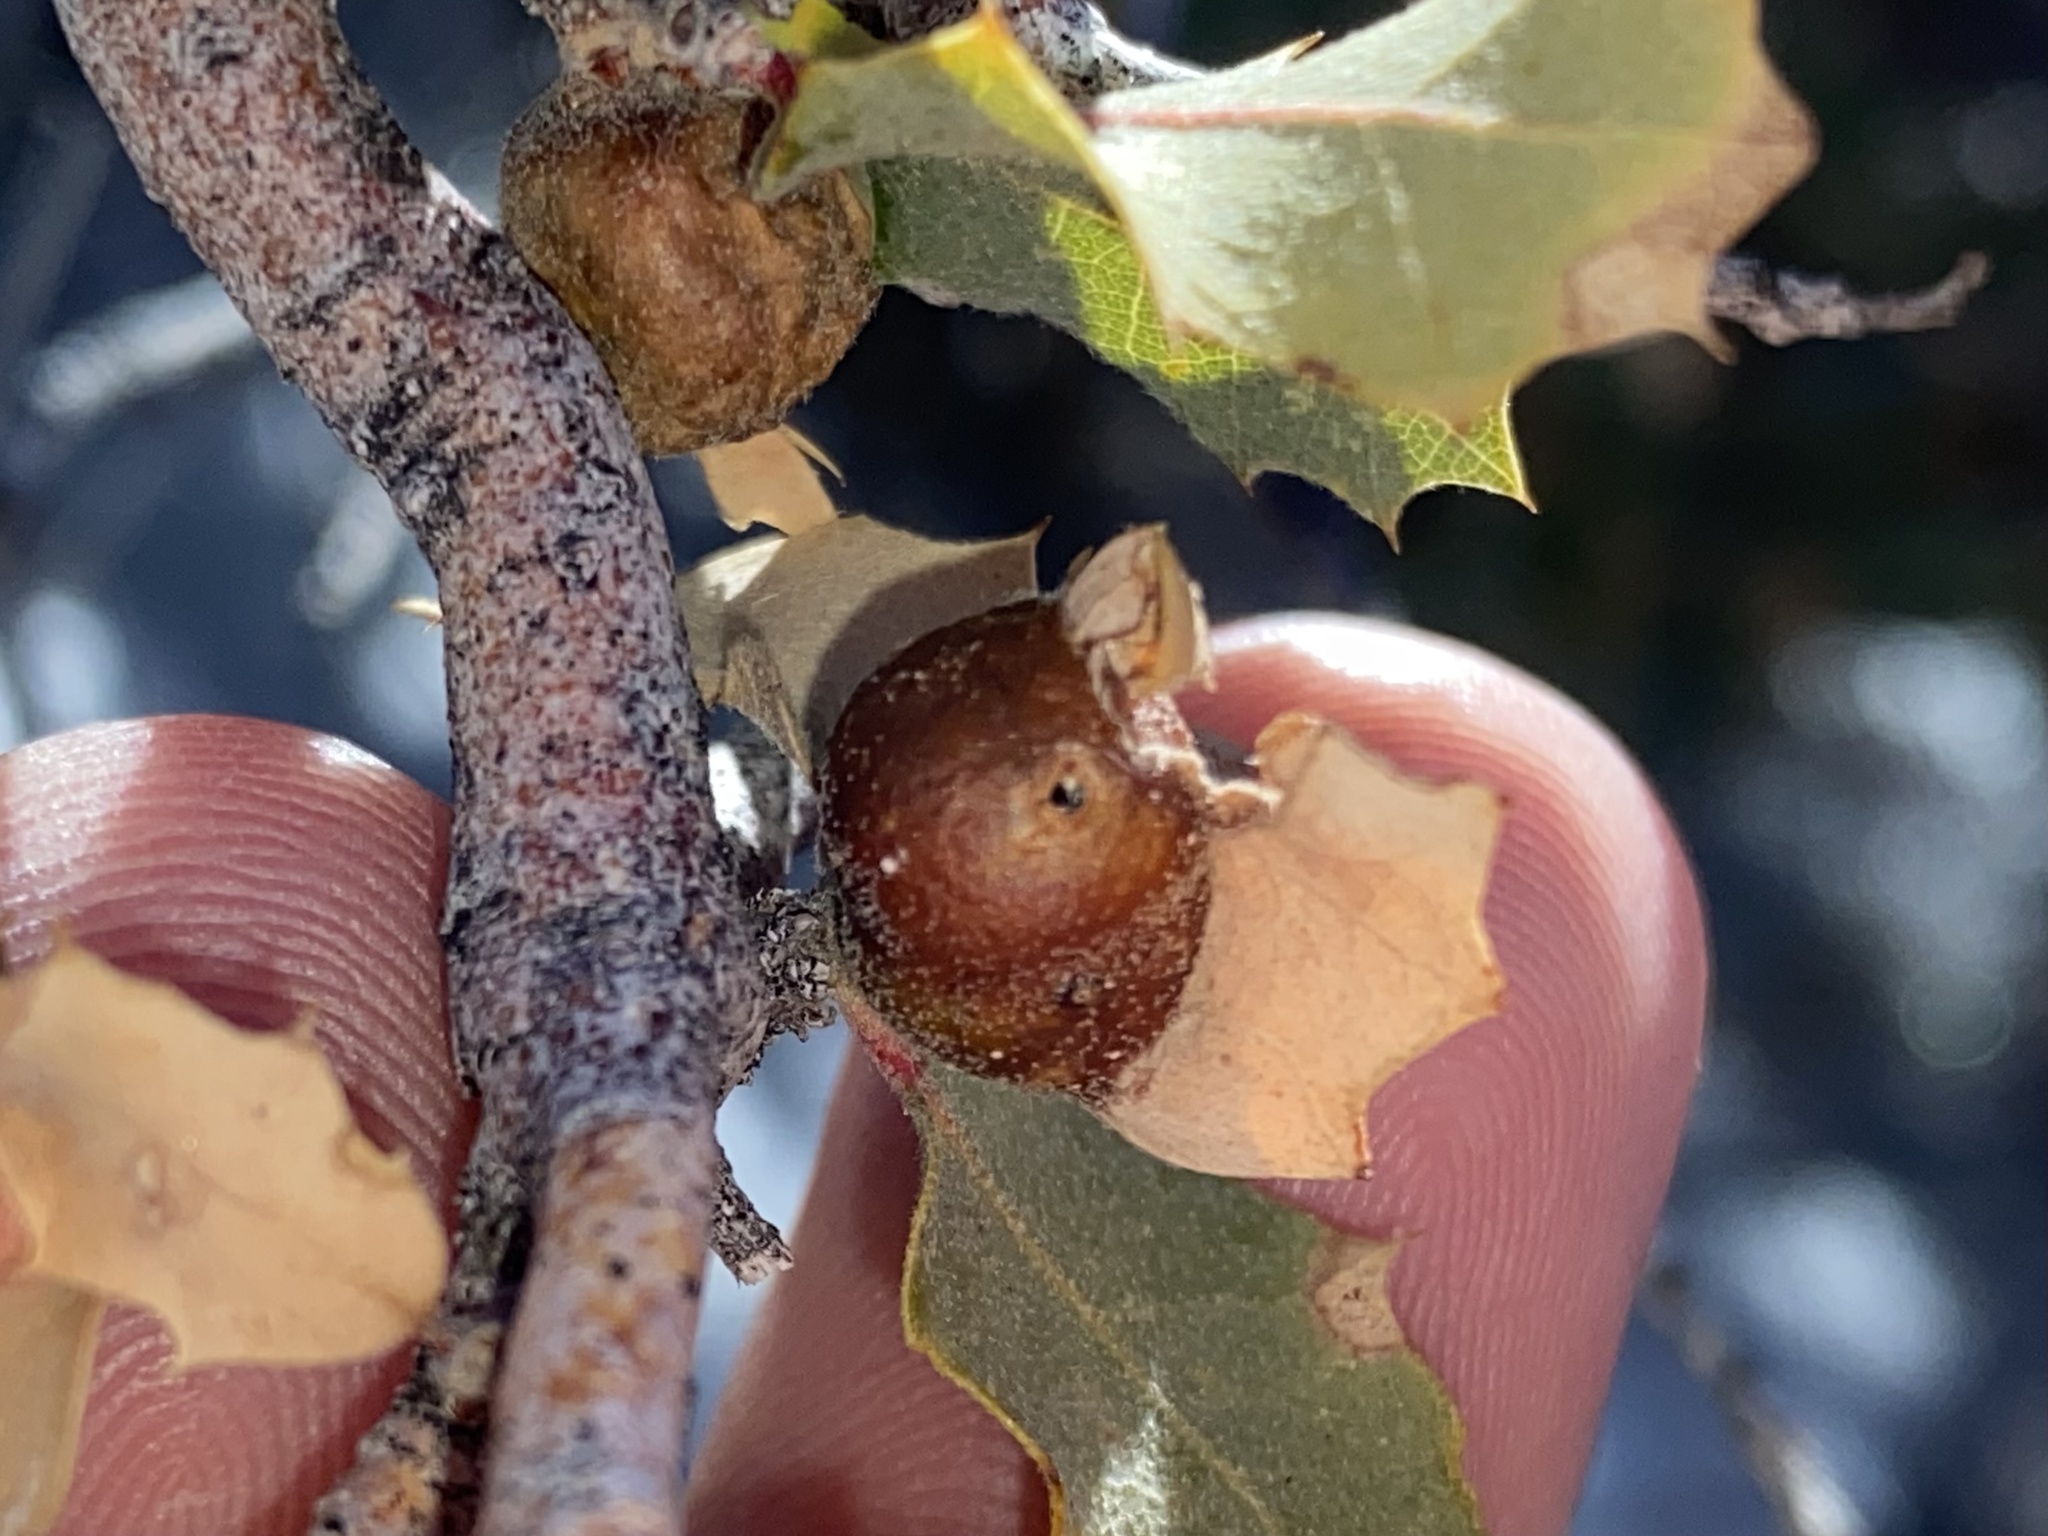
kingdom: Animalia
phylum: Arthropoda
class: Insecta
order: Hymenoptera
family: Cynipidae
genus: Andricus
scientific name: Andricus
